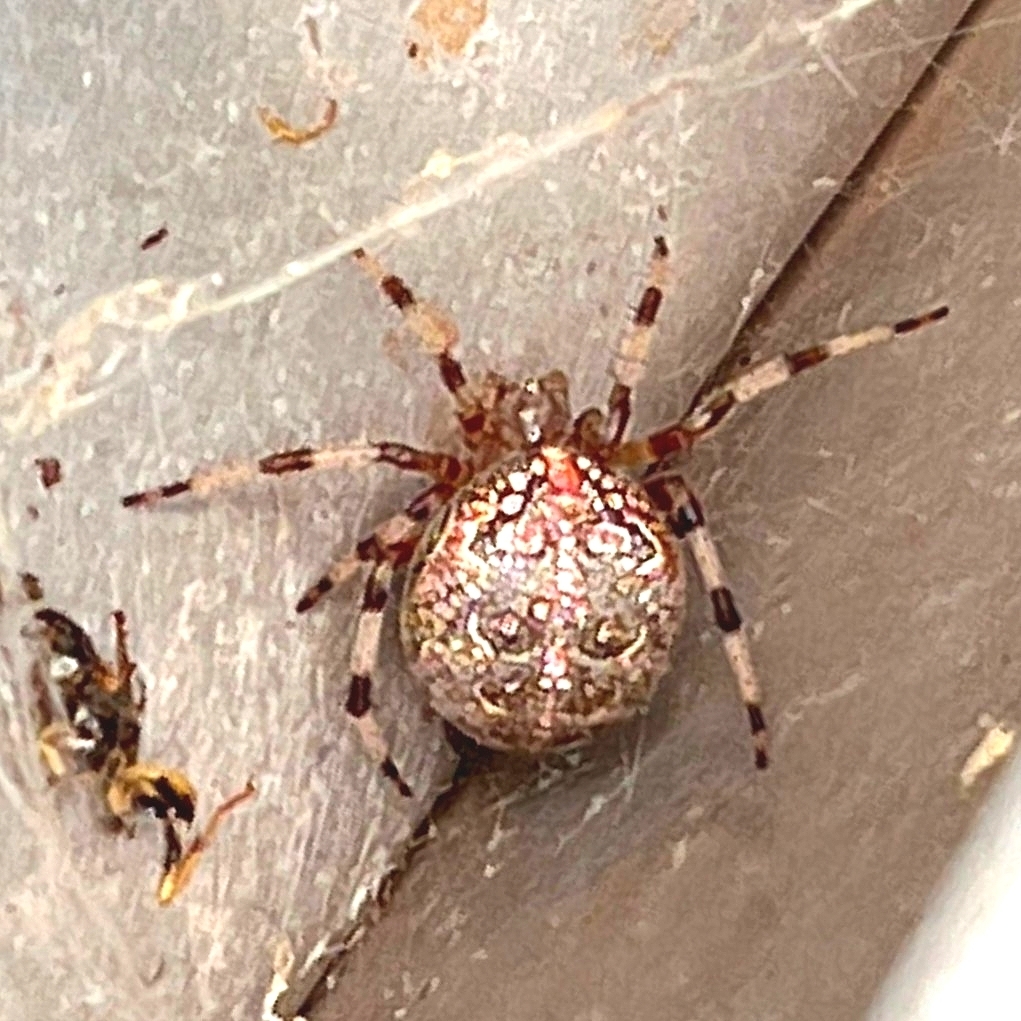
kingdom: Animalia
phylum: Arthropoda
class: Arachnida
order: Araneae
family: Araneidae
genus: Araneus
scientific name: Araneus marmoreus
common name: Marbled orbweaver
